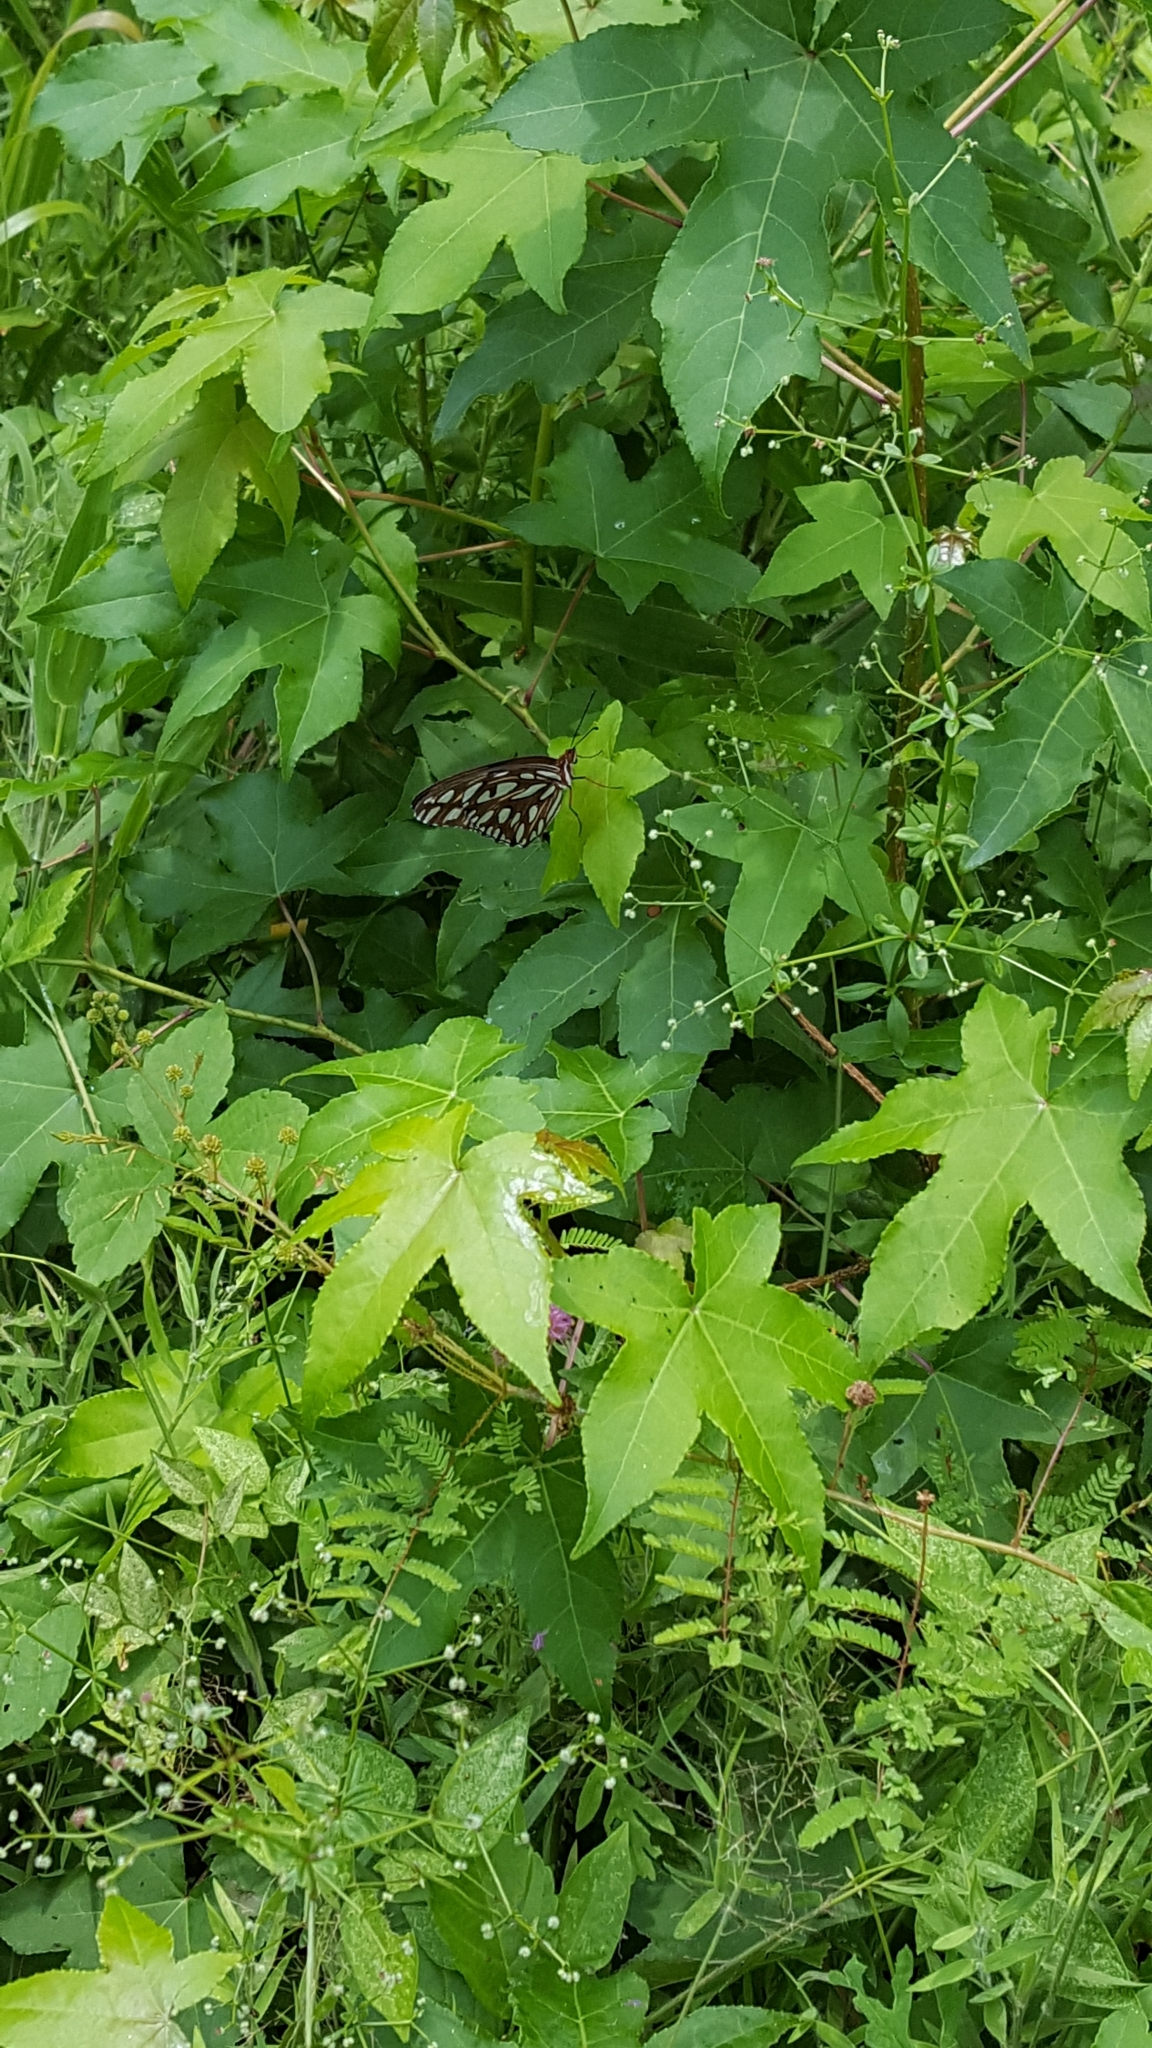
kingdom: Animalia
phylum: Arthropoda
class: Insecta
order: Lepidoptera
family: Nymphalidae
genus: Dione
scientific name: Dione vanillae
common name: Gulf fritillary
